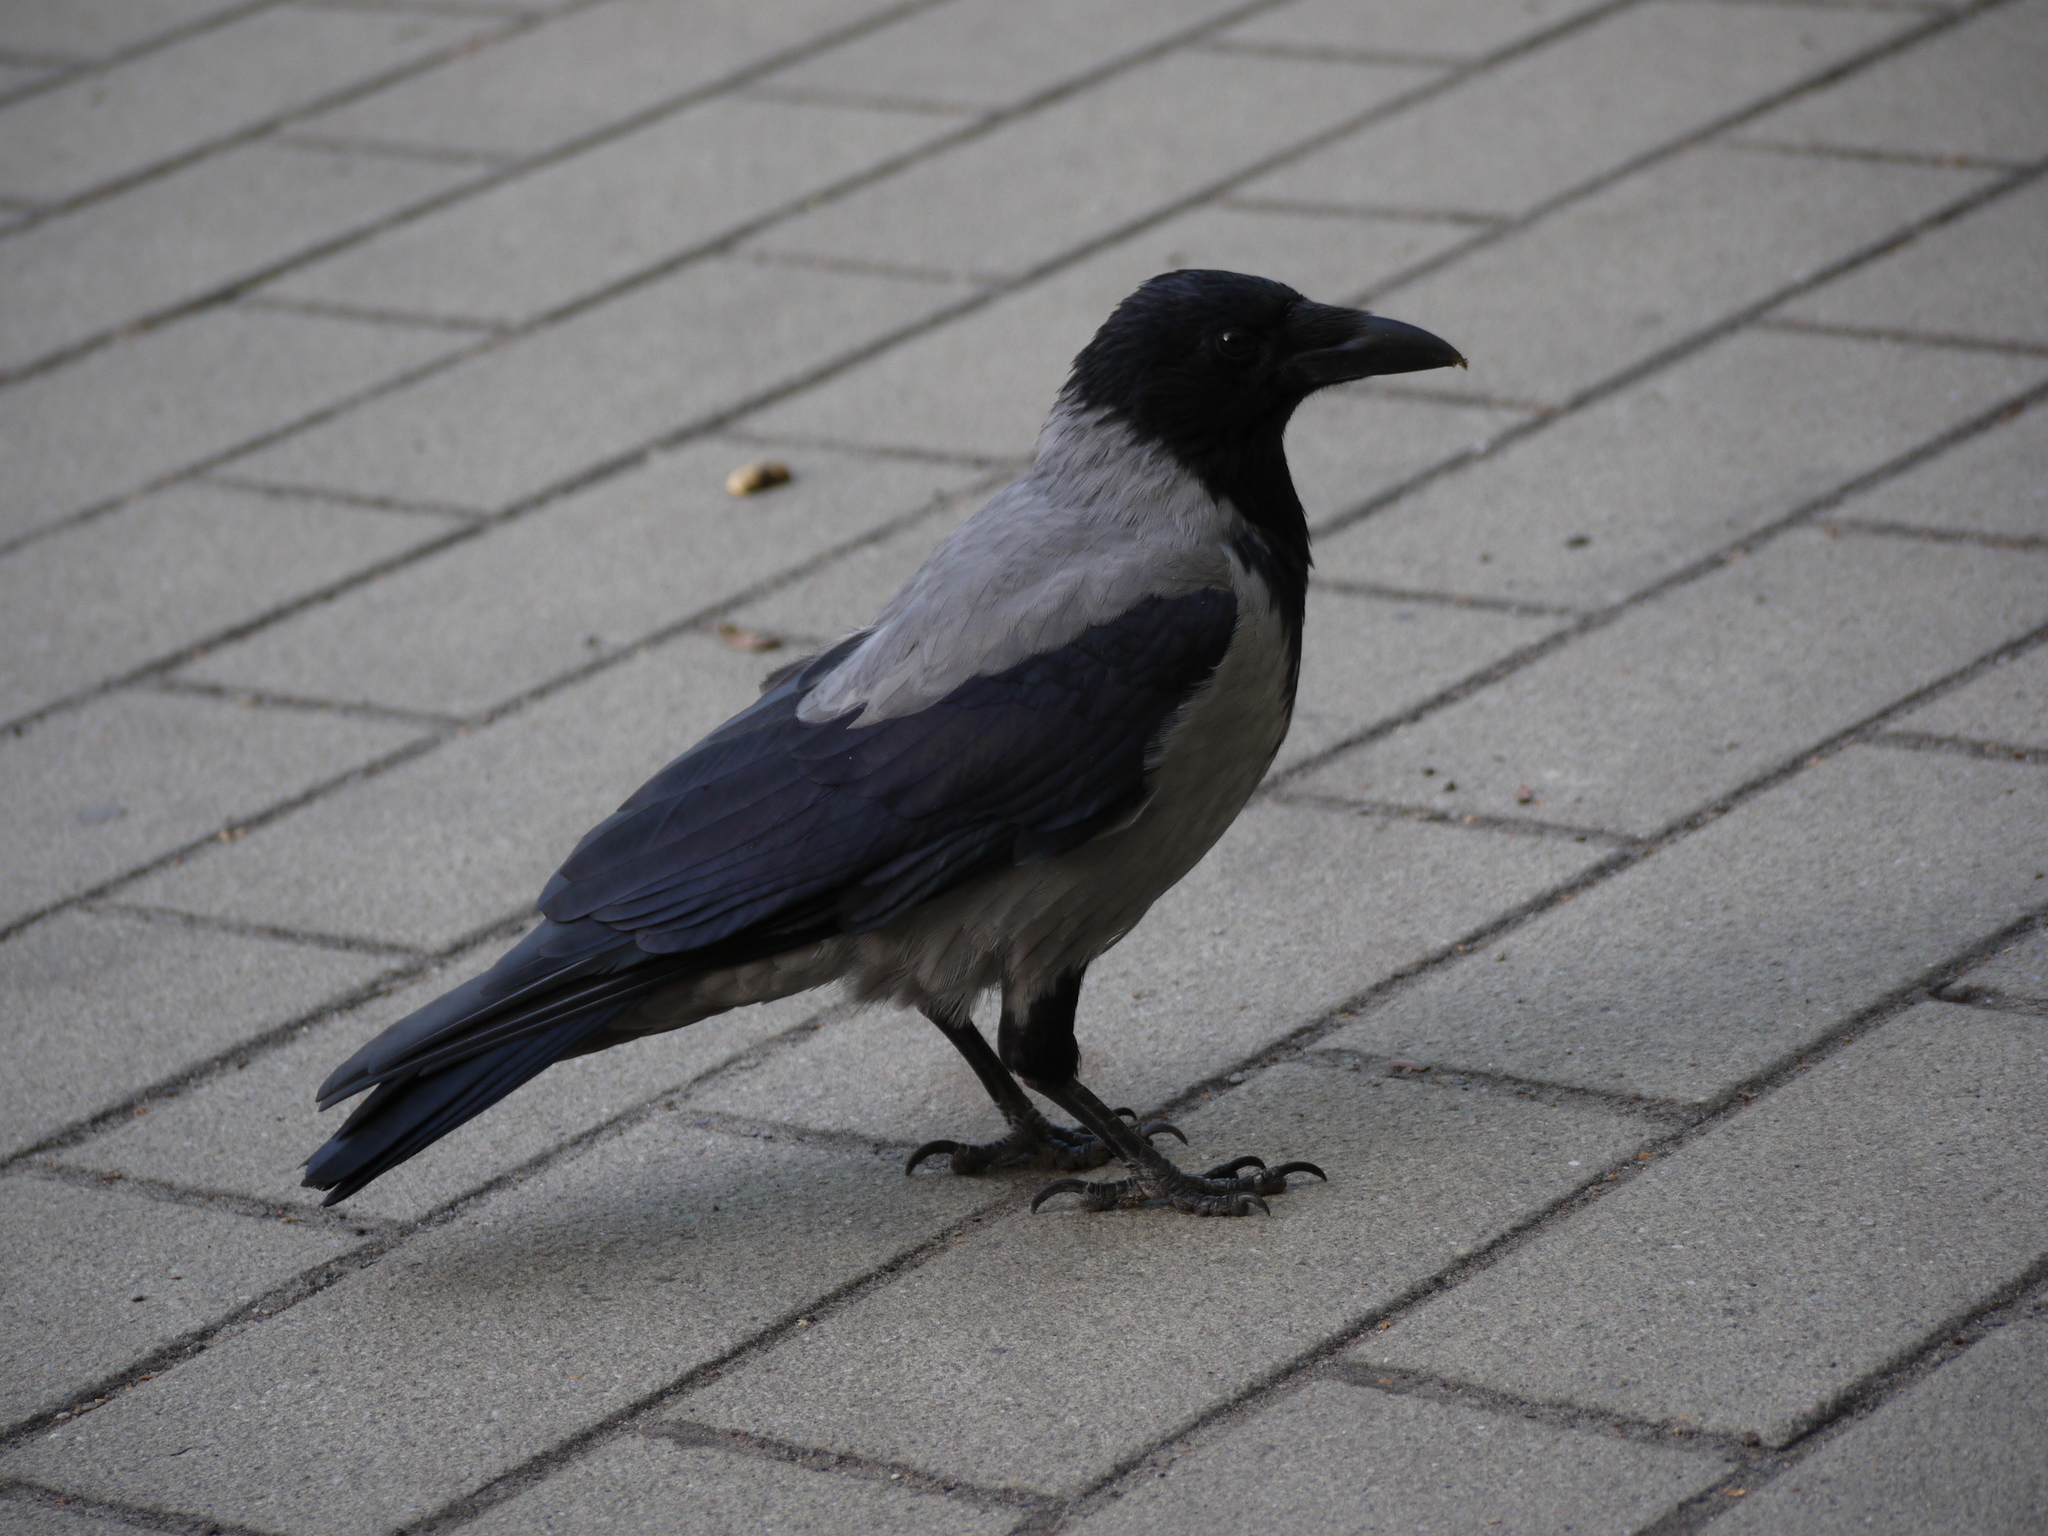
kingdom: Animalia
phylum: Chordata
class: Aves
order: Passeriformes
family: Corvidae
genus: Corvus
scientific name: Corvus cornix
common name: Hooded crow
